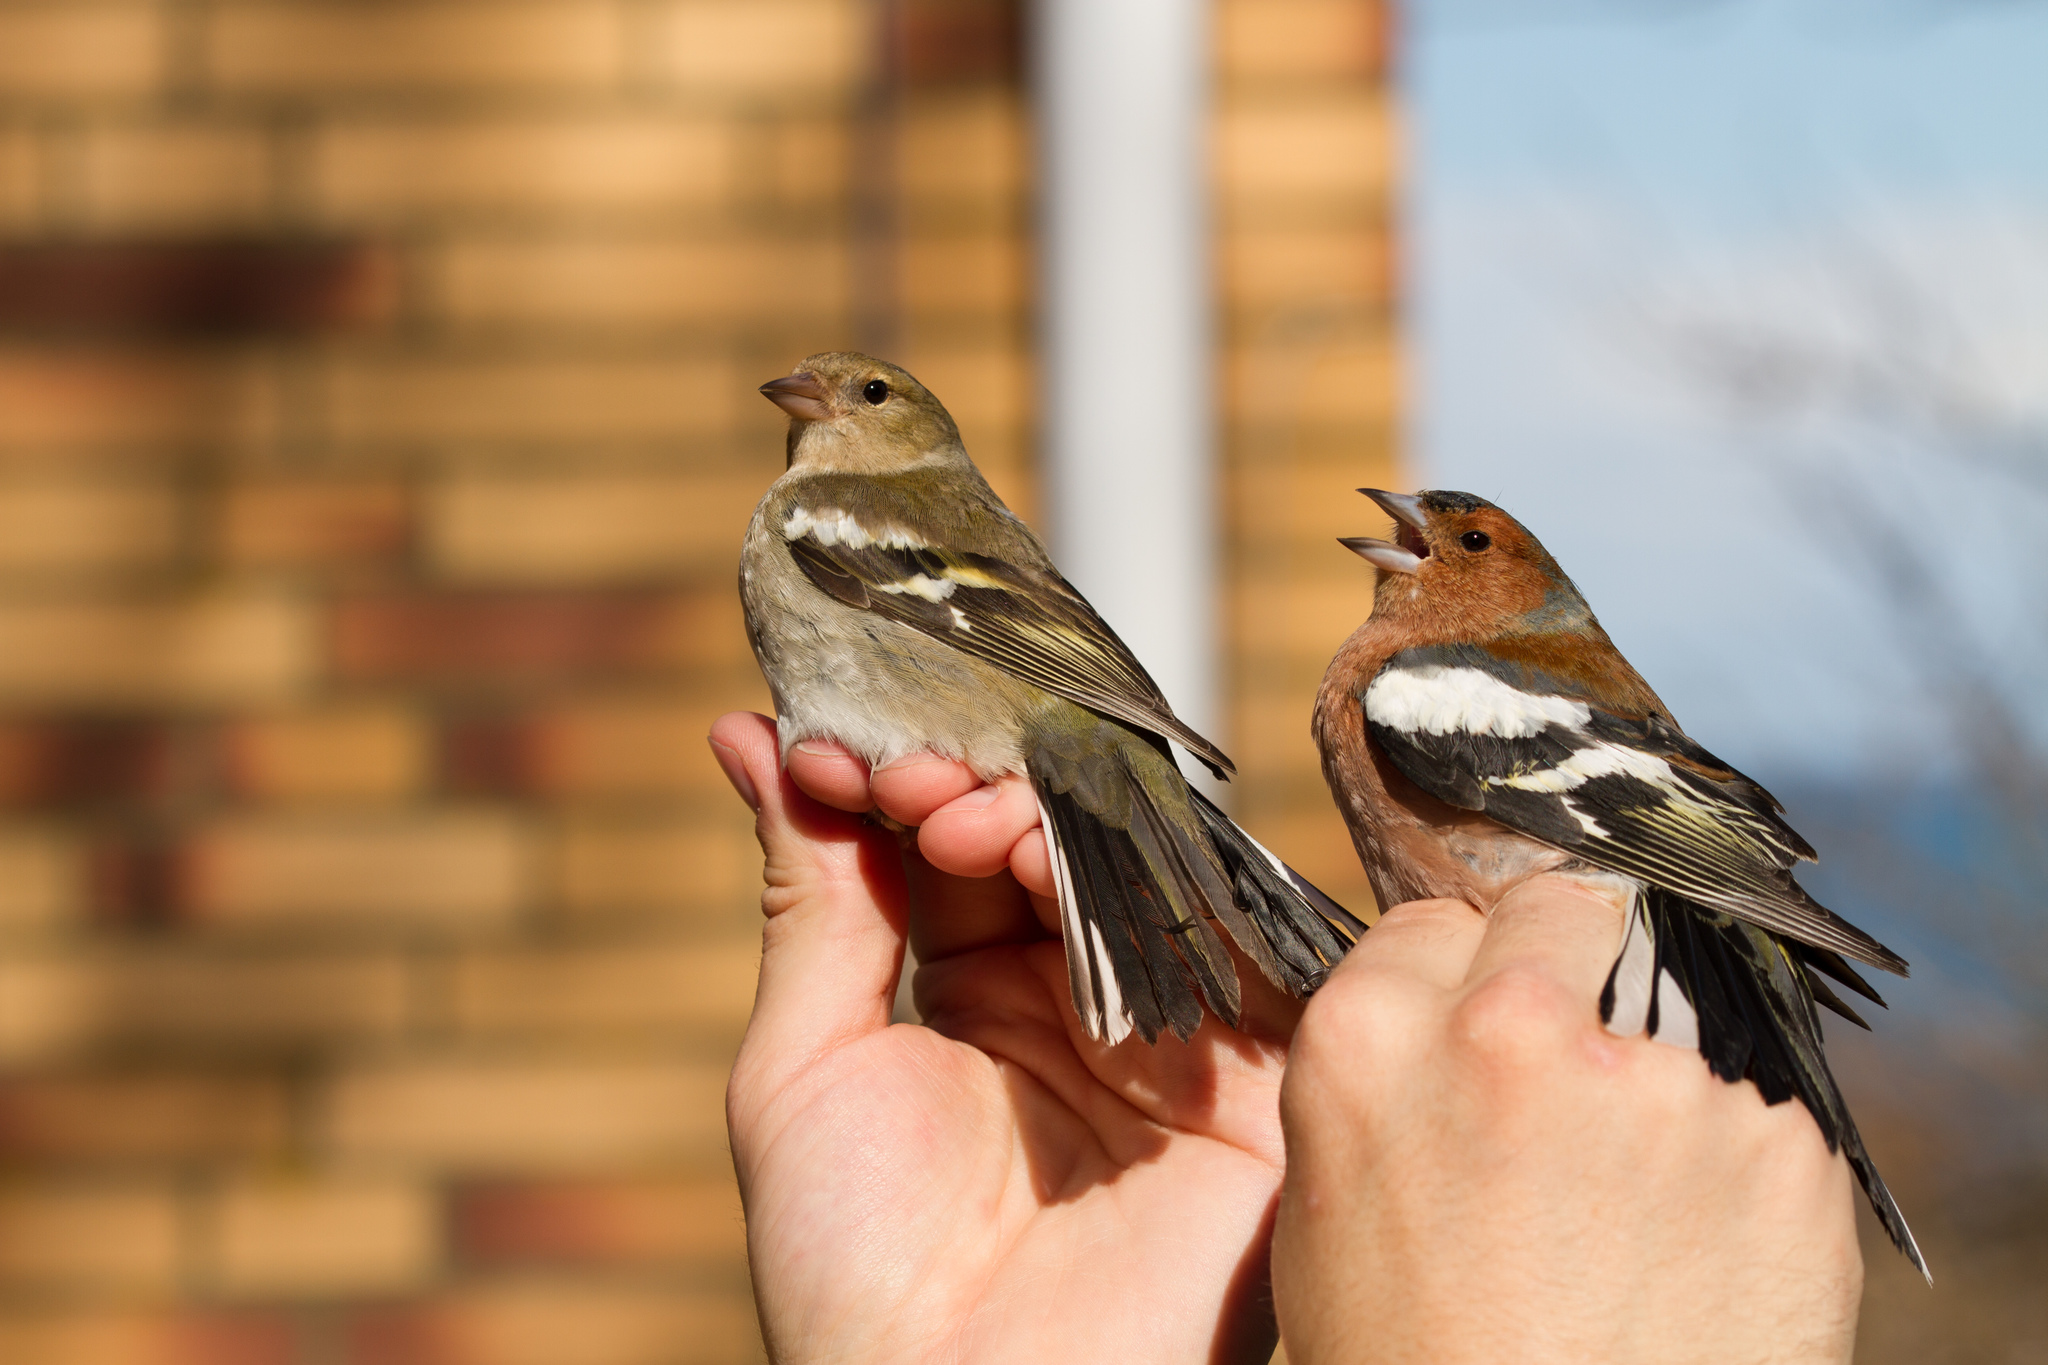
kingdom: Animalia
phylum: Chordata
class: Aves
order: Passeriformes
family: Fringillidae
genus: Fringilla
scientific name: Fringilla coelebs
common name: Common chaffinch
